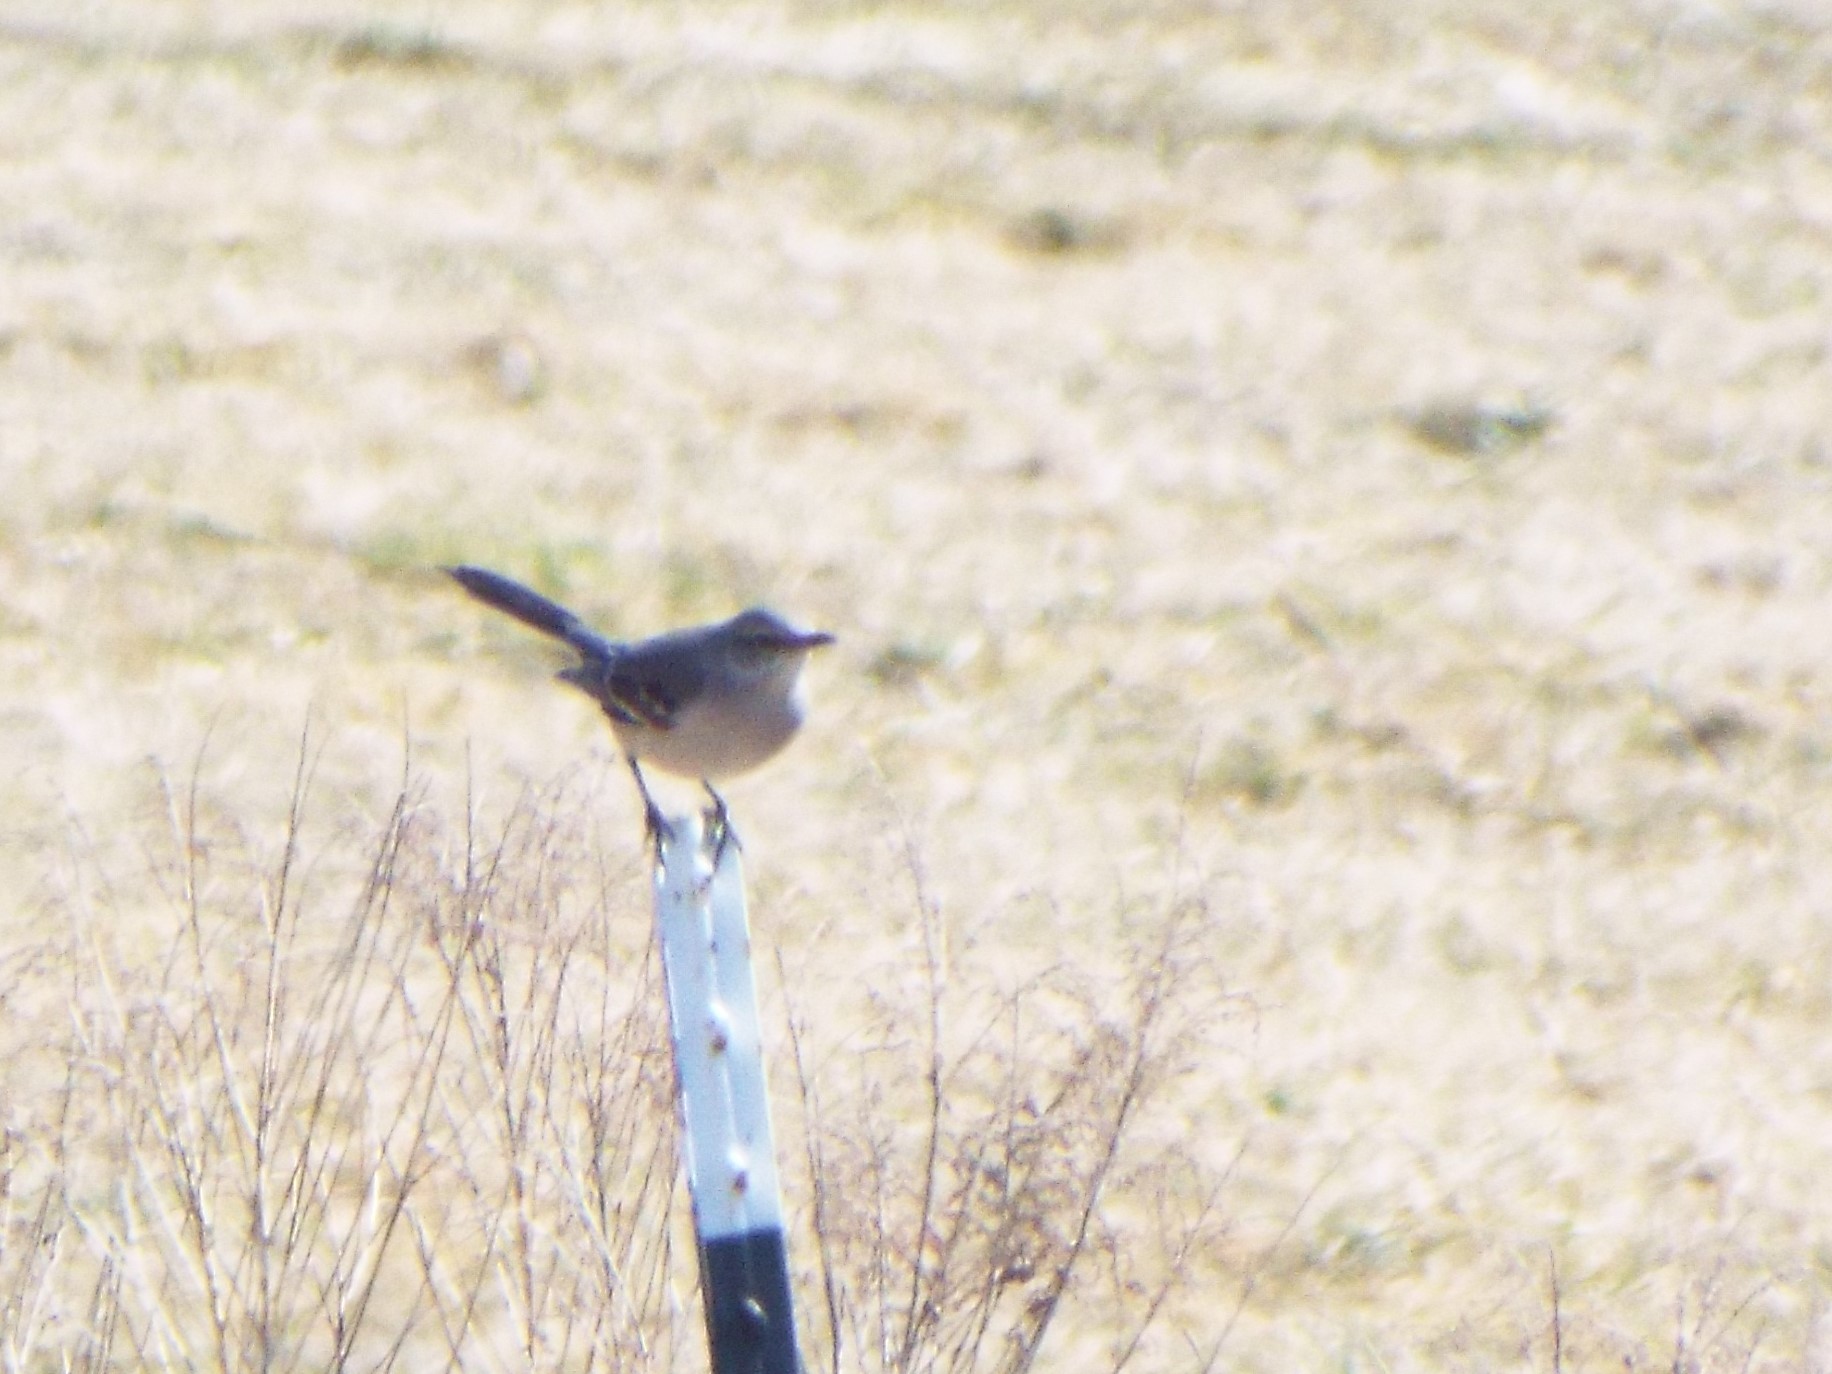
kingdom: Animalia
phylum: Chordata
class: Aves
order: Passeriformes
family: Mimidae
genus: Mimus
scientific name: Mimus polyglottos
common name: Northern mockingbird
